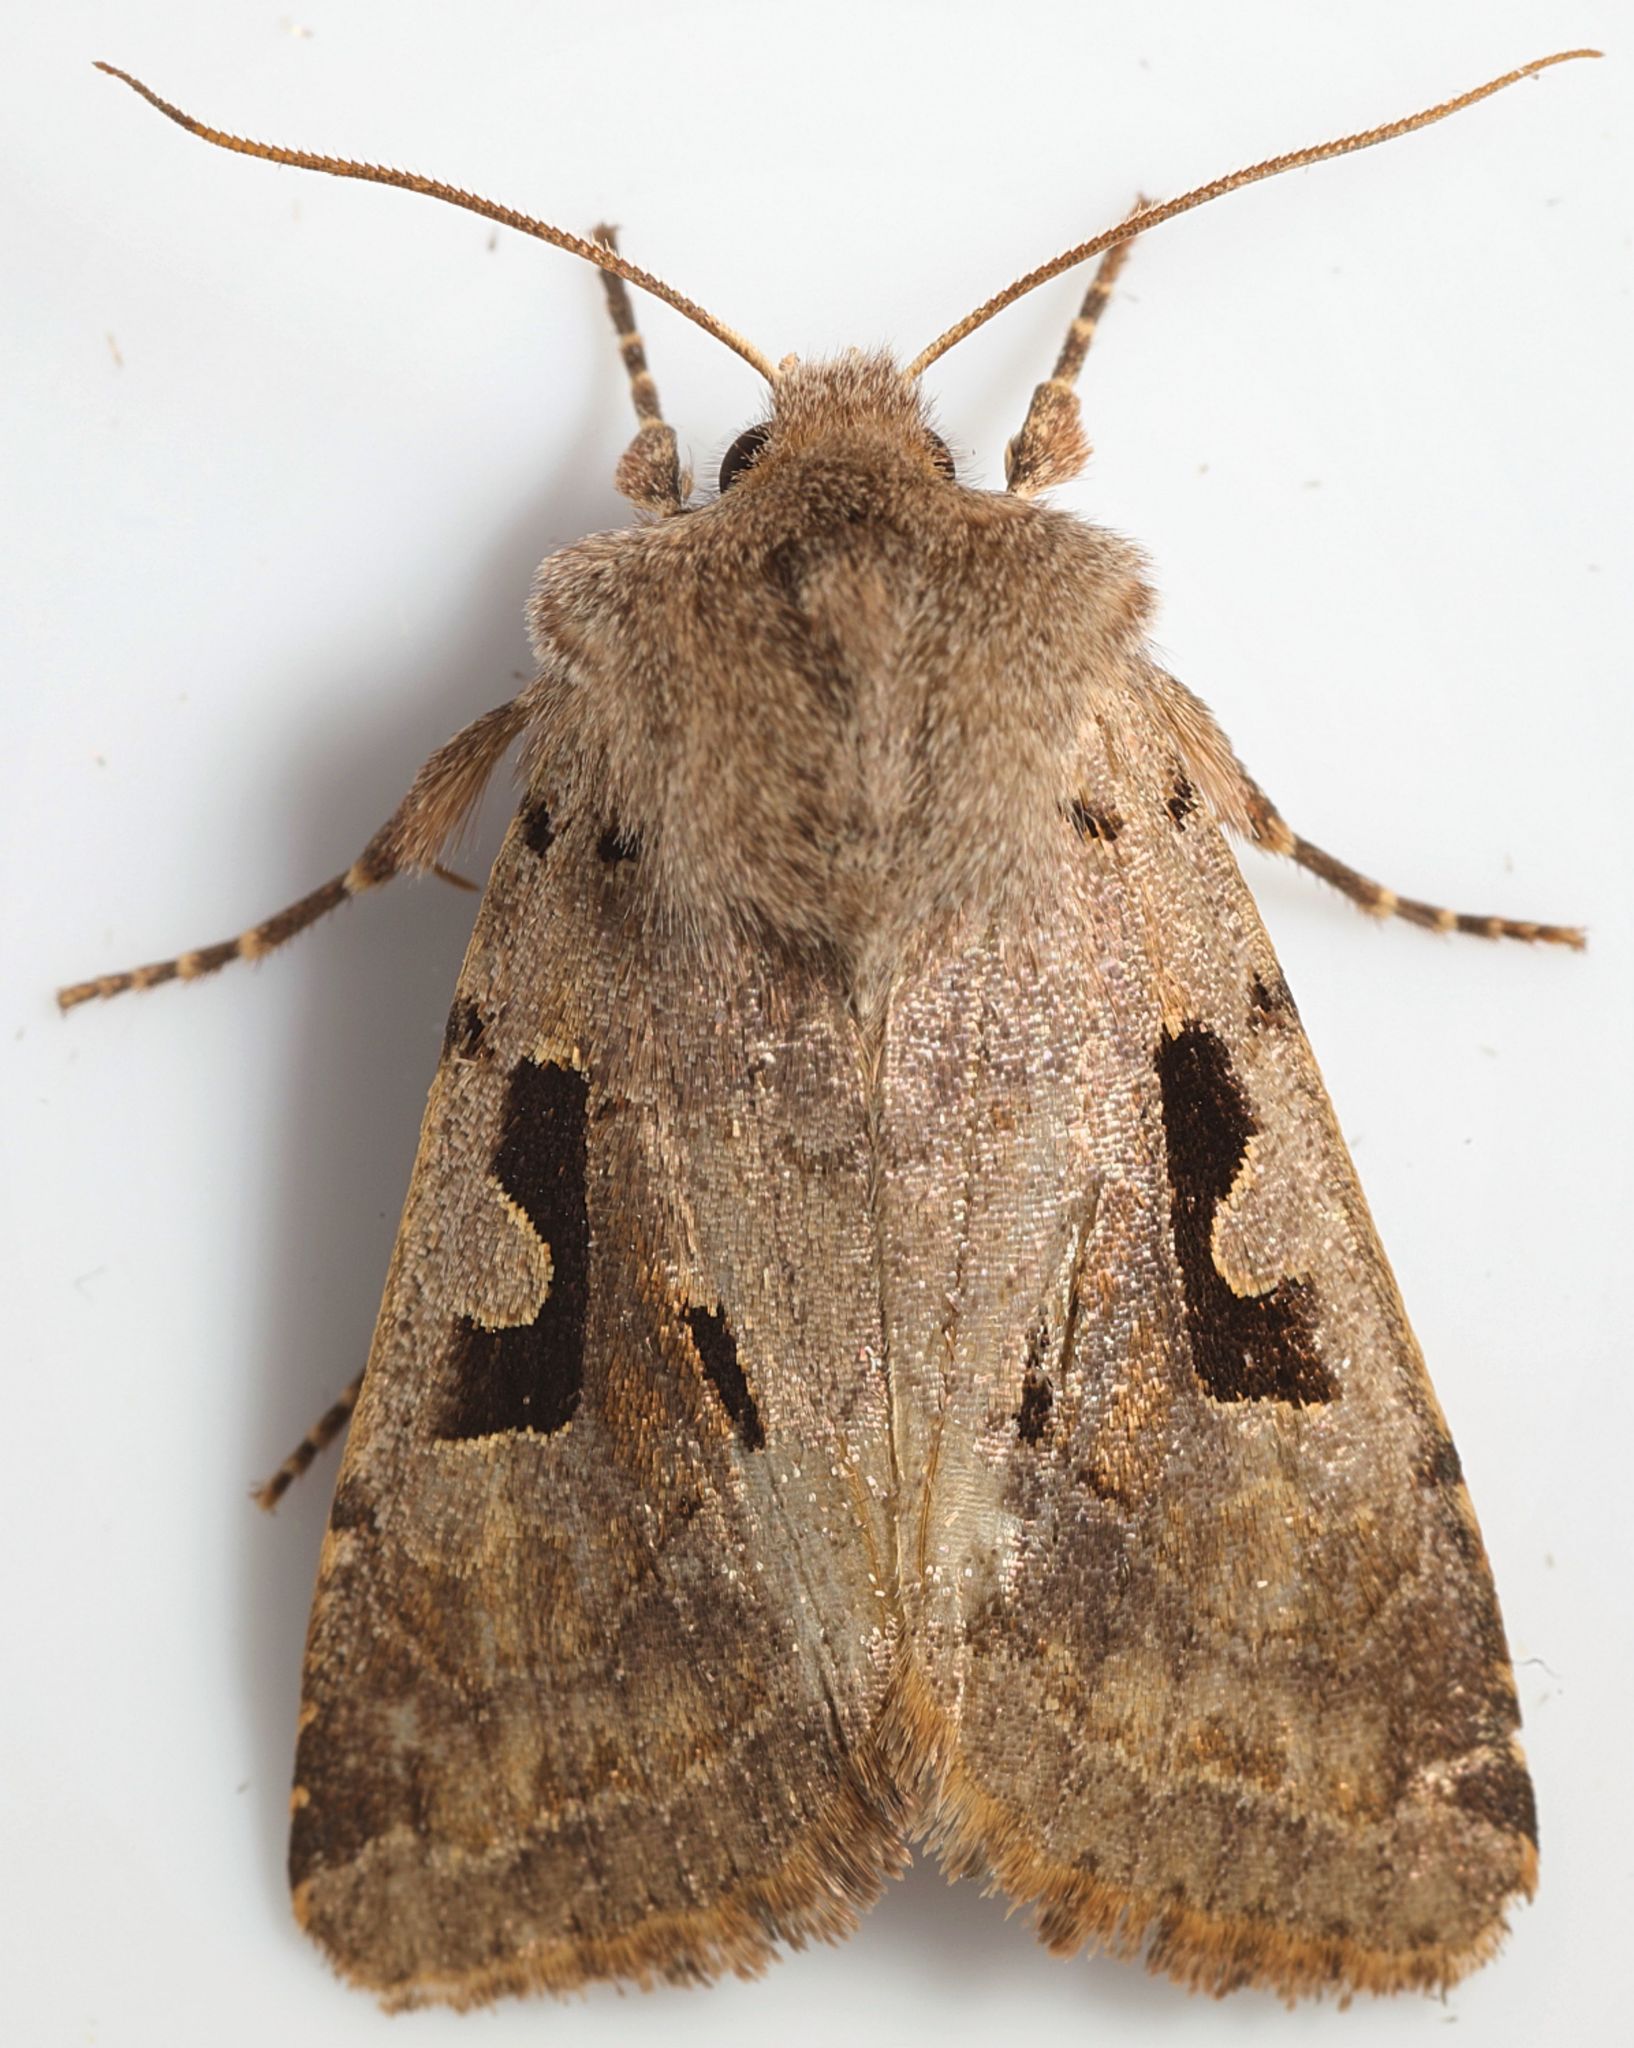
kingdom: Animalia
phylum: Arthropoda
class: Insecta
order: Lepidoptera
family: Noctuidae
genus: Orthosia
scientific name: Orthosia gothica
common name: Hebrew character
